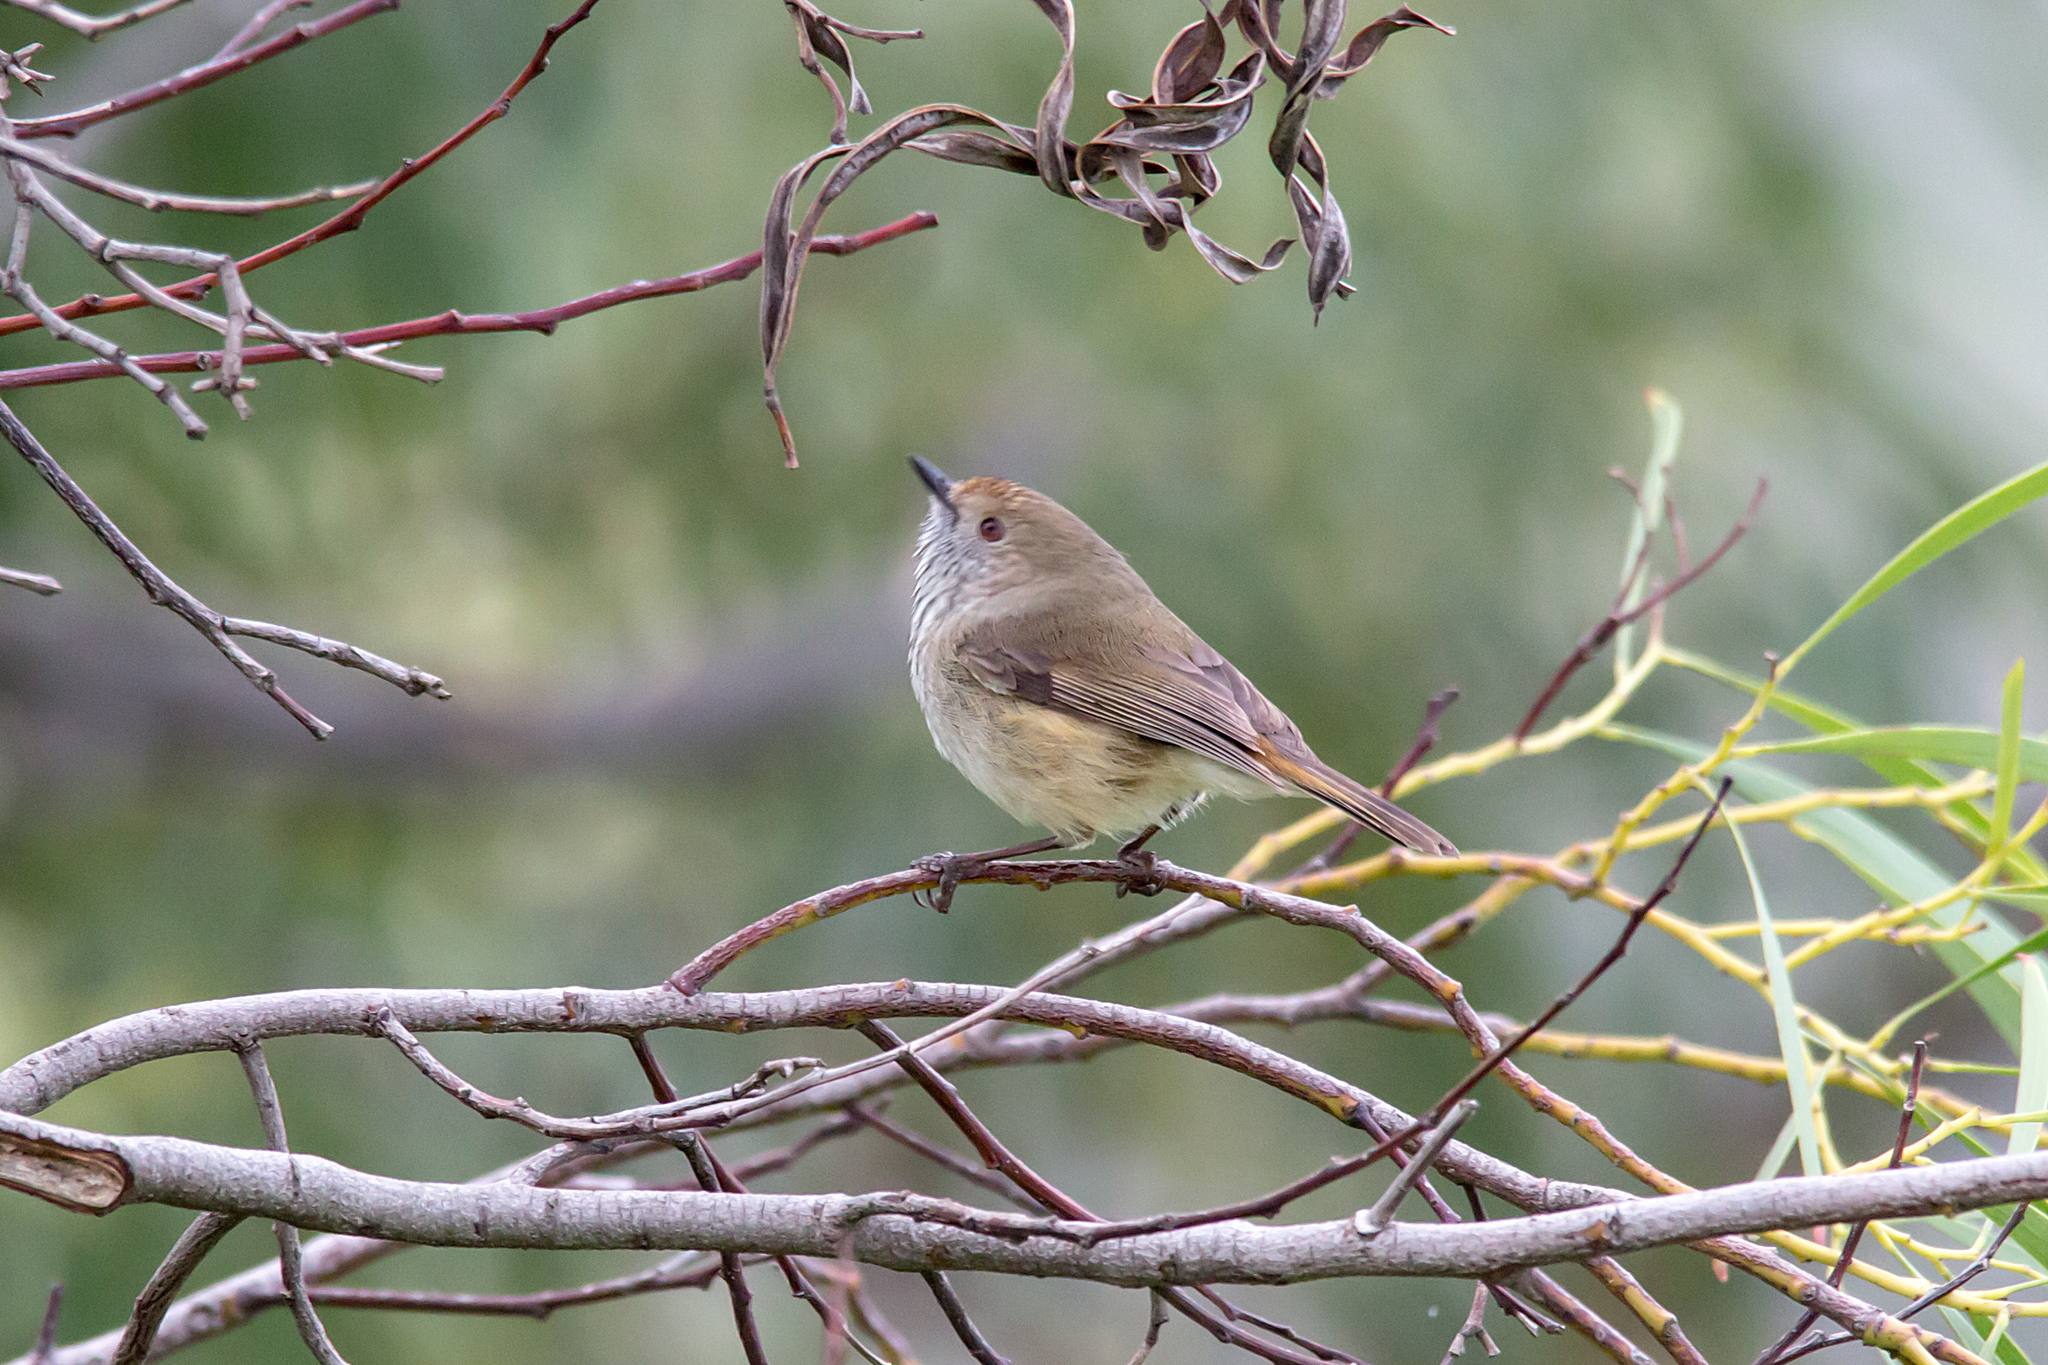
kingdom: Animalia
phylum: Chordata
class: Aves
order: Passeriformes
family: Acanthizidae
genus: Acanthiza
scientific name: Acanthiza pusilla
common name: Brown thornbill
